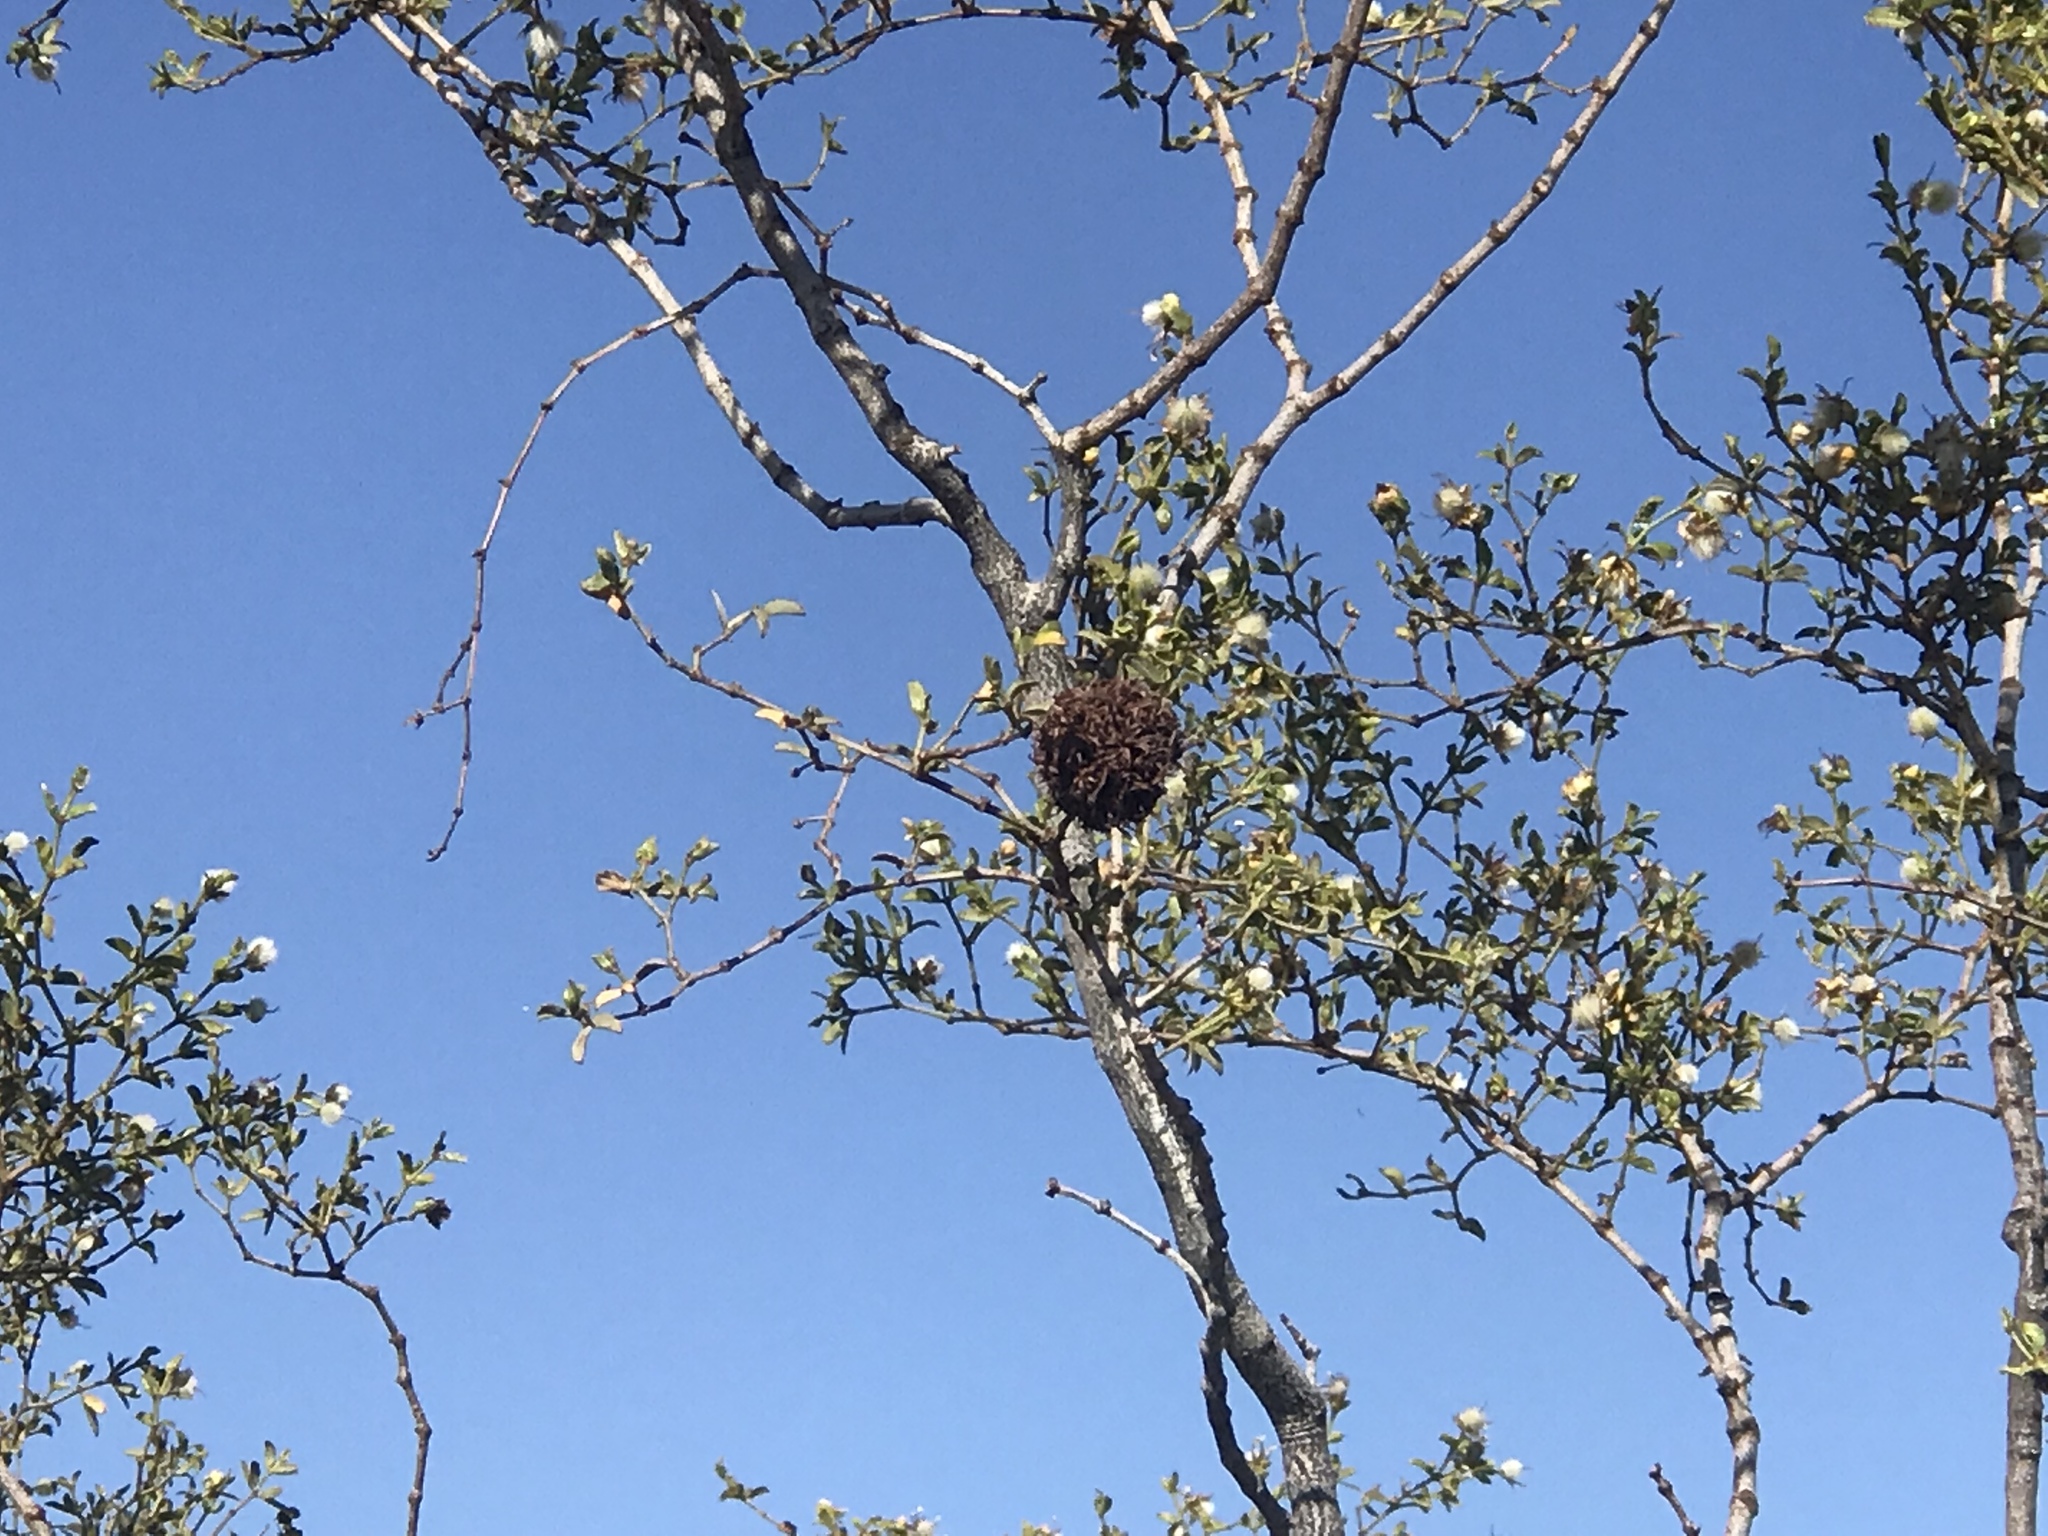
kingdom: Animalia
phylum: Arthropoda
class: Insecta
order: Diptera
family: Cecidomyiidae
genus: Asphondylia
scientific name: Asphondylia auripila
